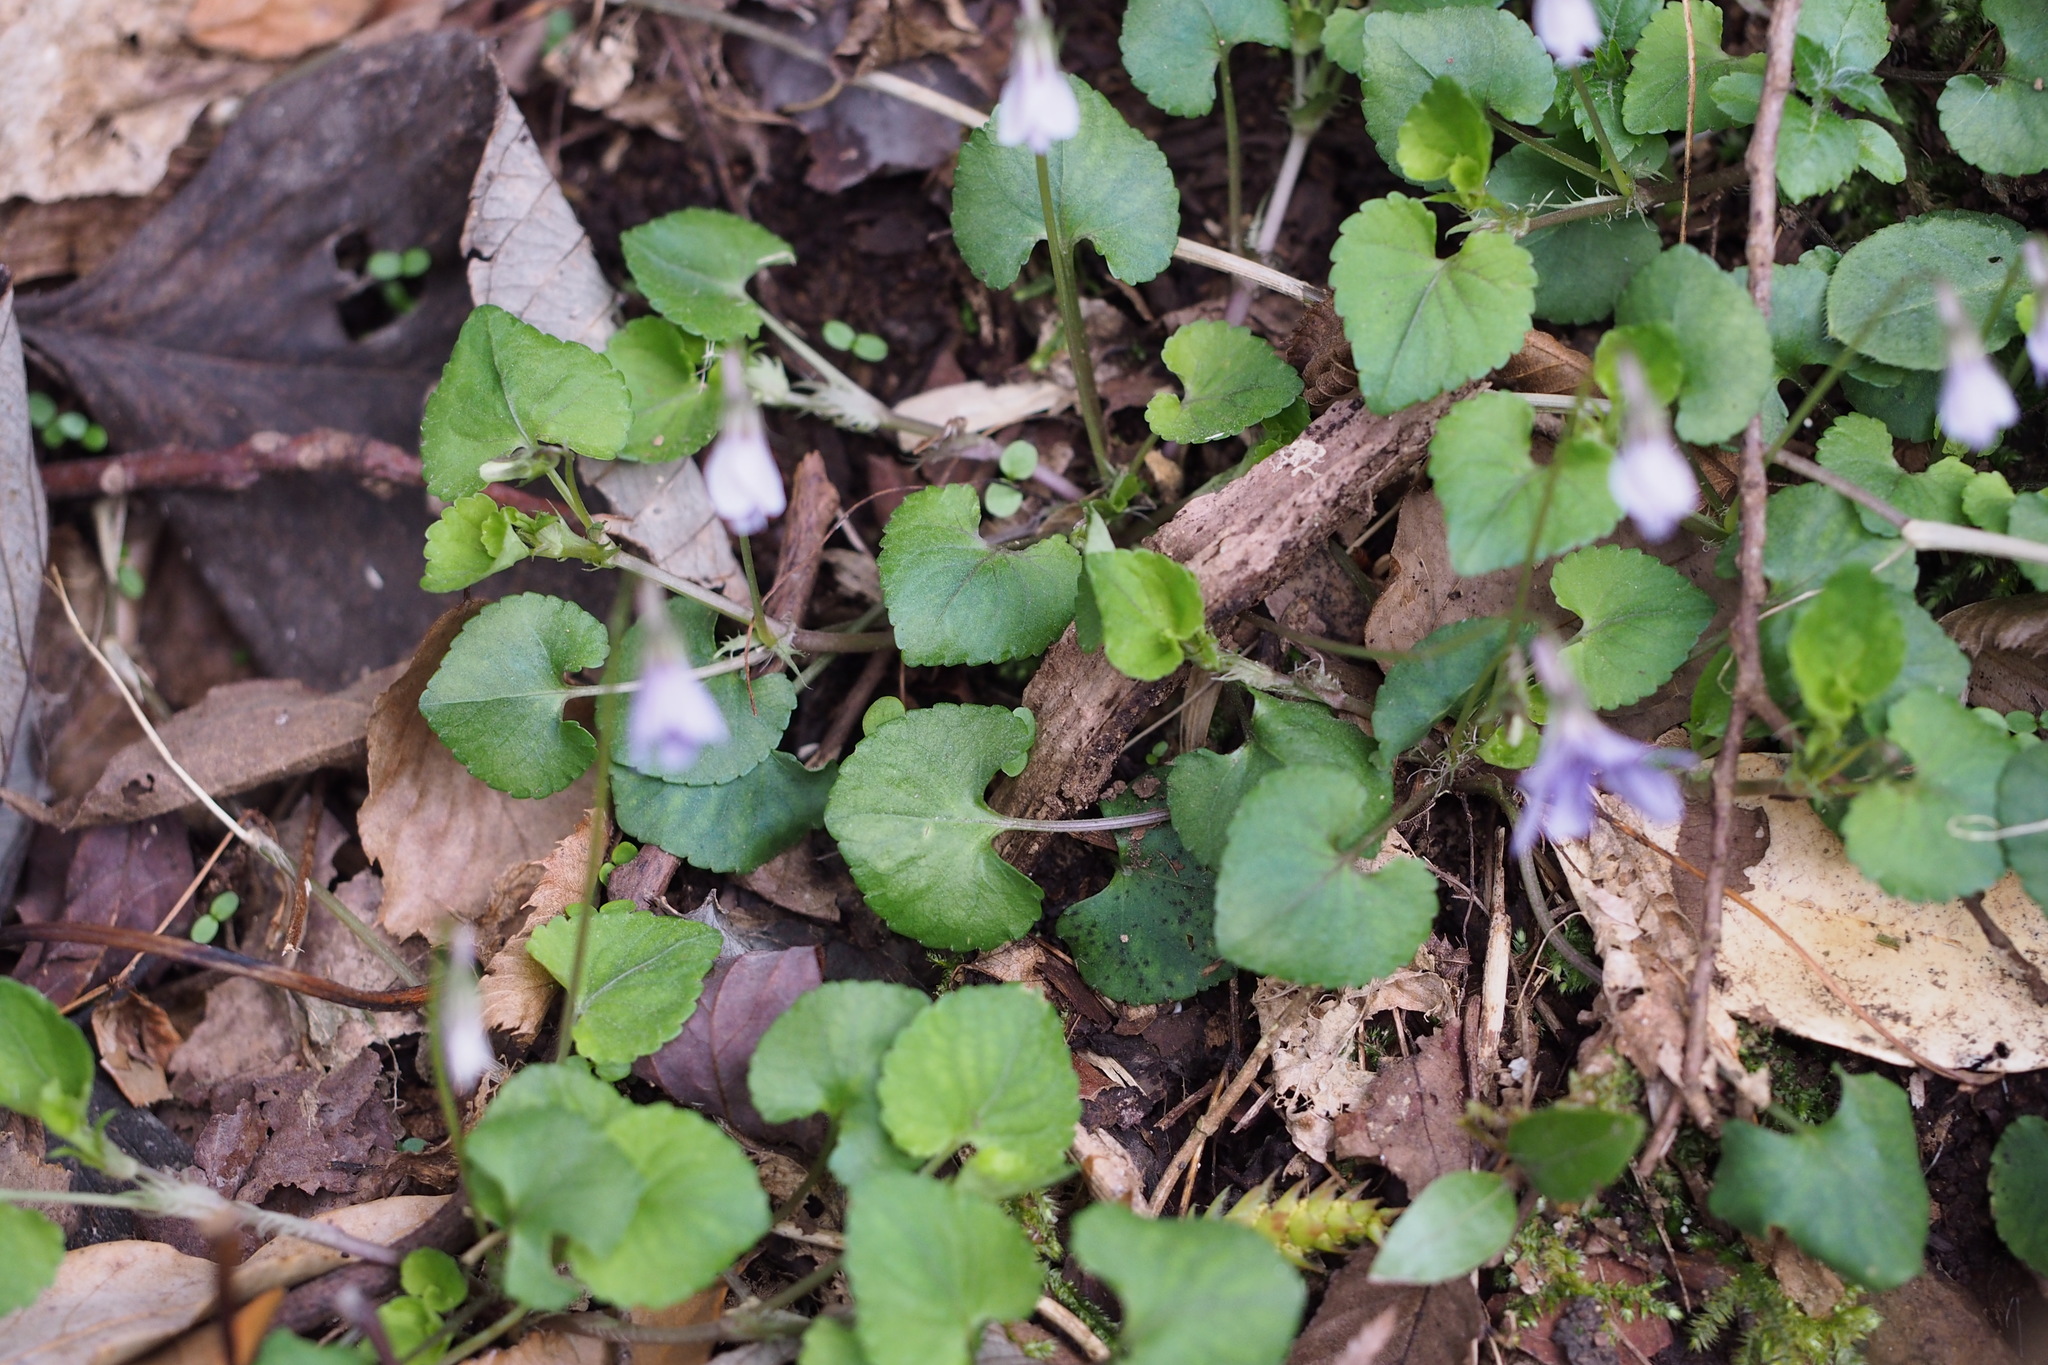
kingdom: Plantae
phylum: Tracheophyta
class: Magnoliopsida
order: Malpighiales
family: Violaceae
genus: Viola
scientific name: Viola grypoceras
